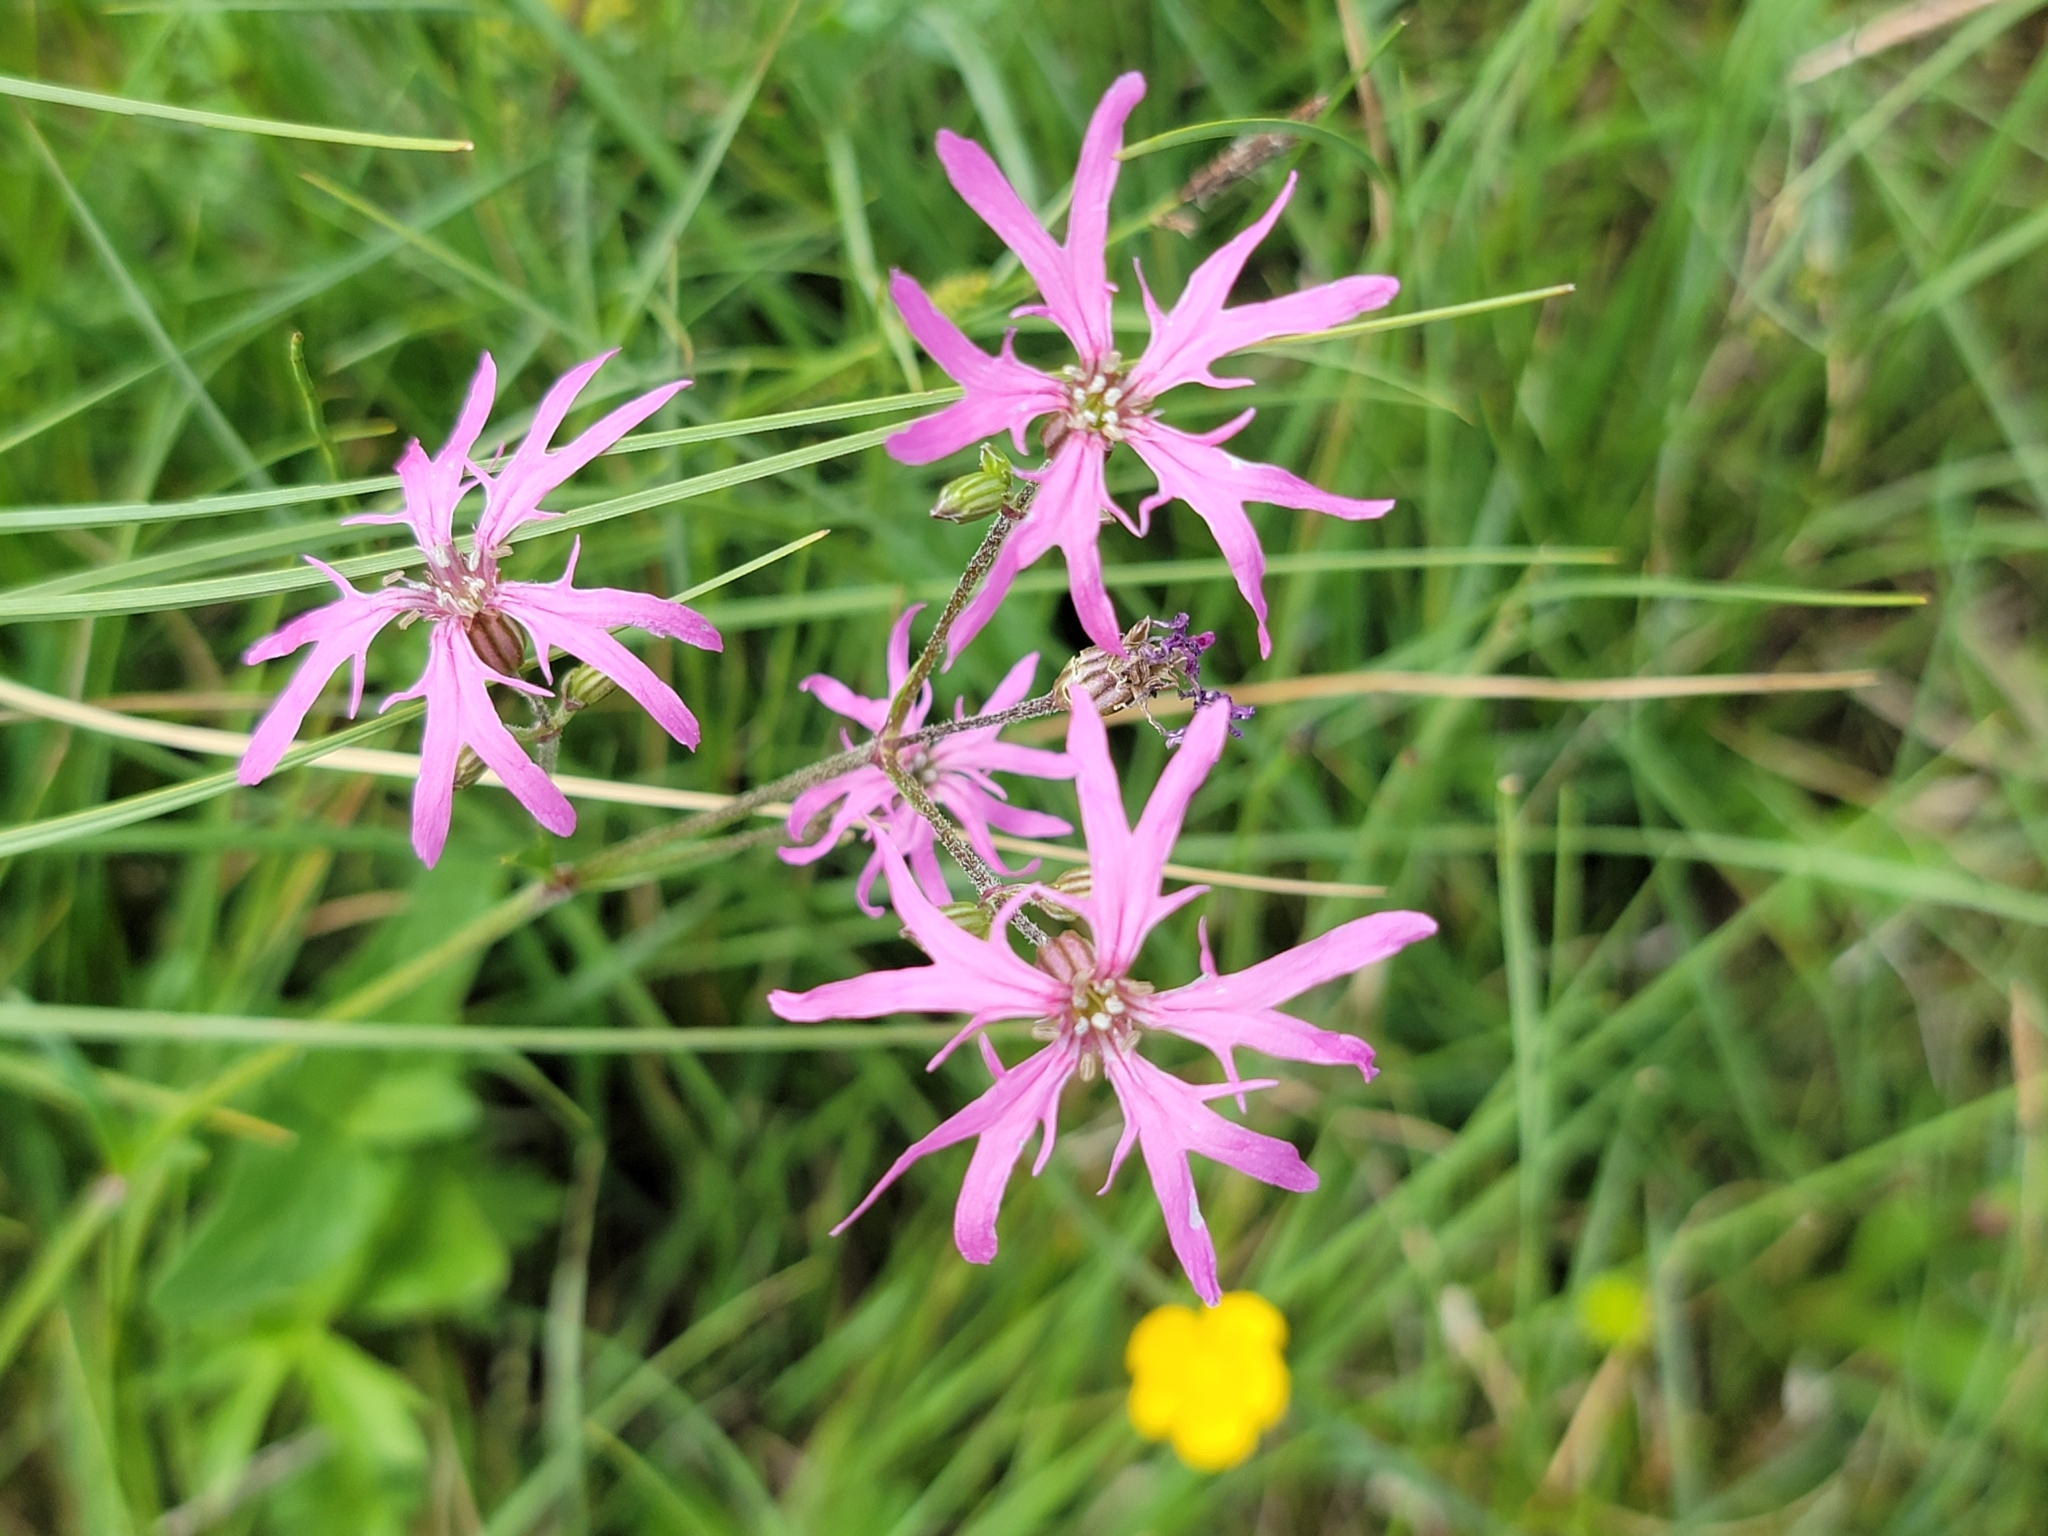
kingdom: Plantae
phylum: Tracheophyta
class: Magnoliopsida
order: Caryophyllales
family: Caryophyllaceae
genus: Silene
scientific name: Silene flos-cuculi
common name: Ragged-robin
